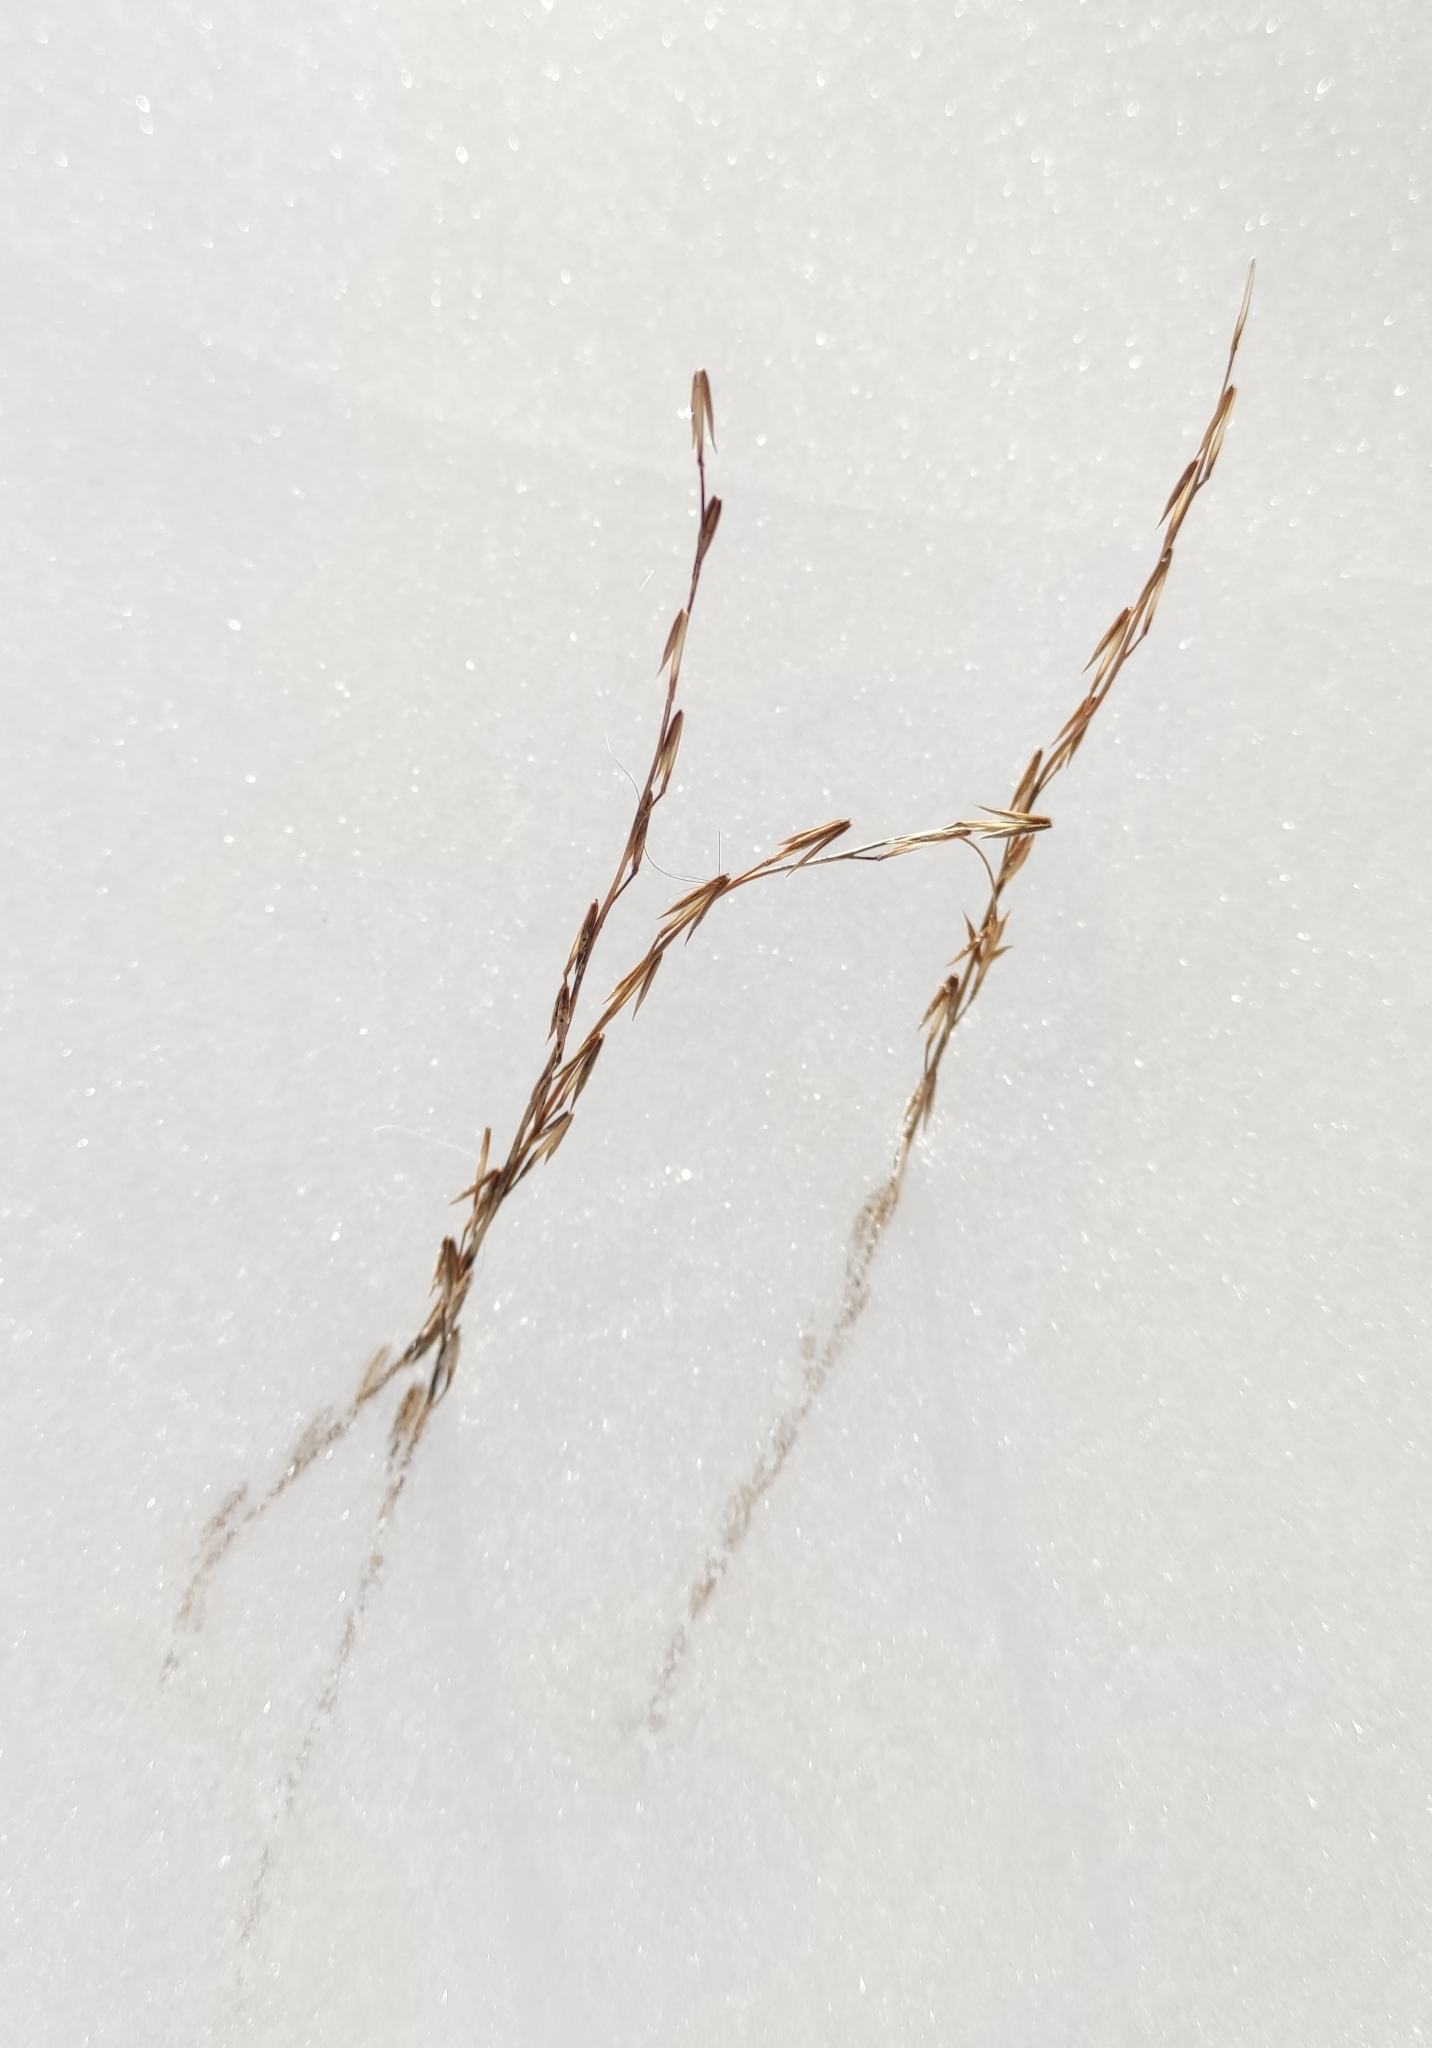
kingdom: Plantae
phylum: Tracheophyta
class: Liliopsida
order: Alismatales
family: Juncaginaceae
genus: Triglochin
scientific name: Triglochin palustris
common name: Marsh arrowgrass
